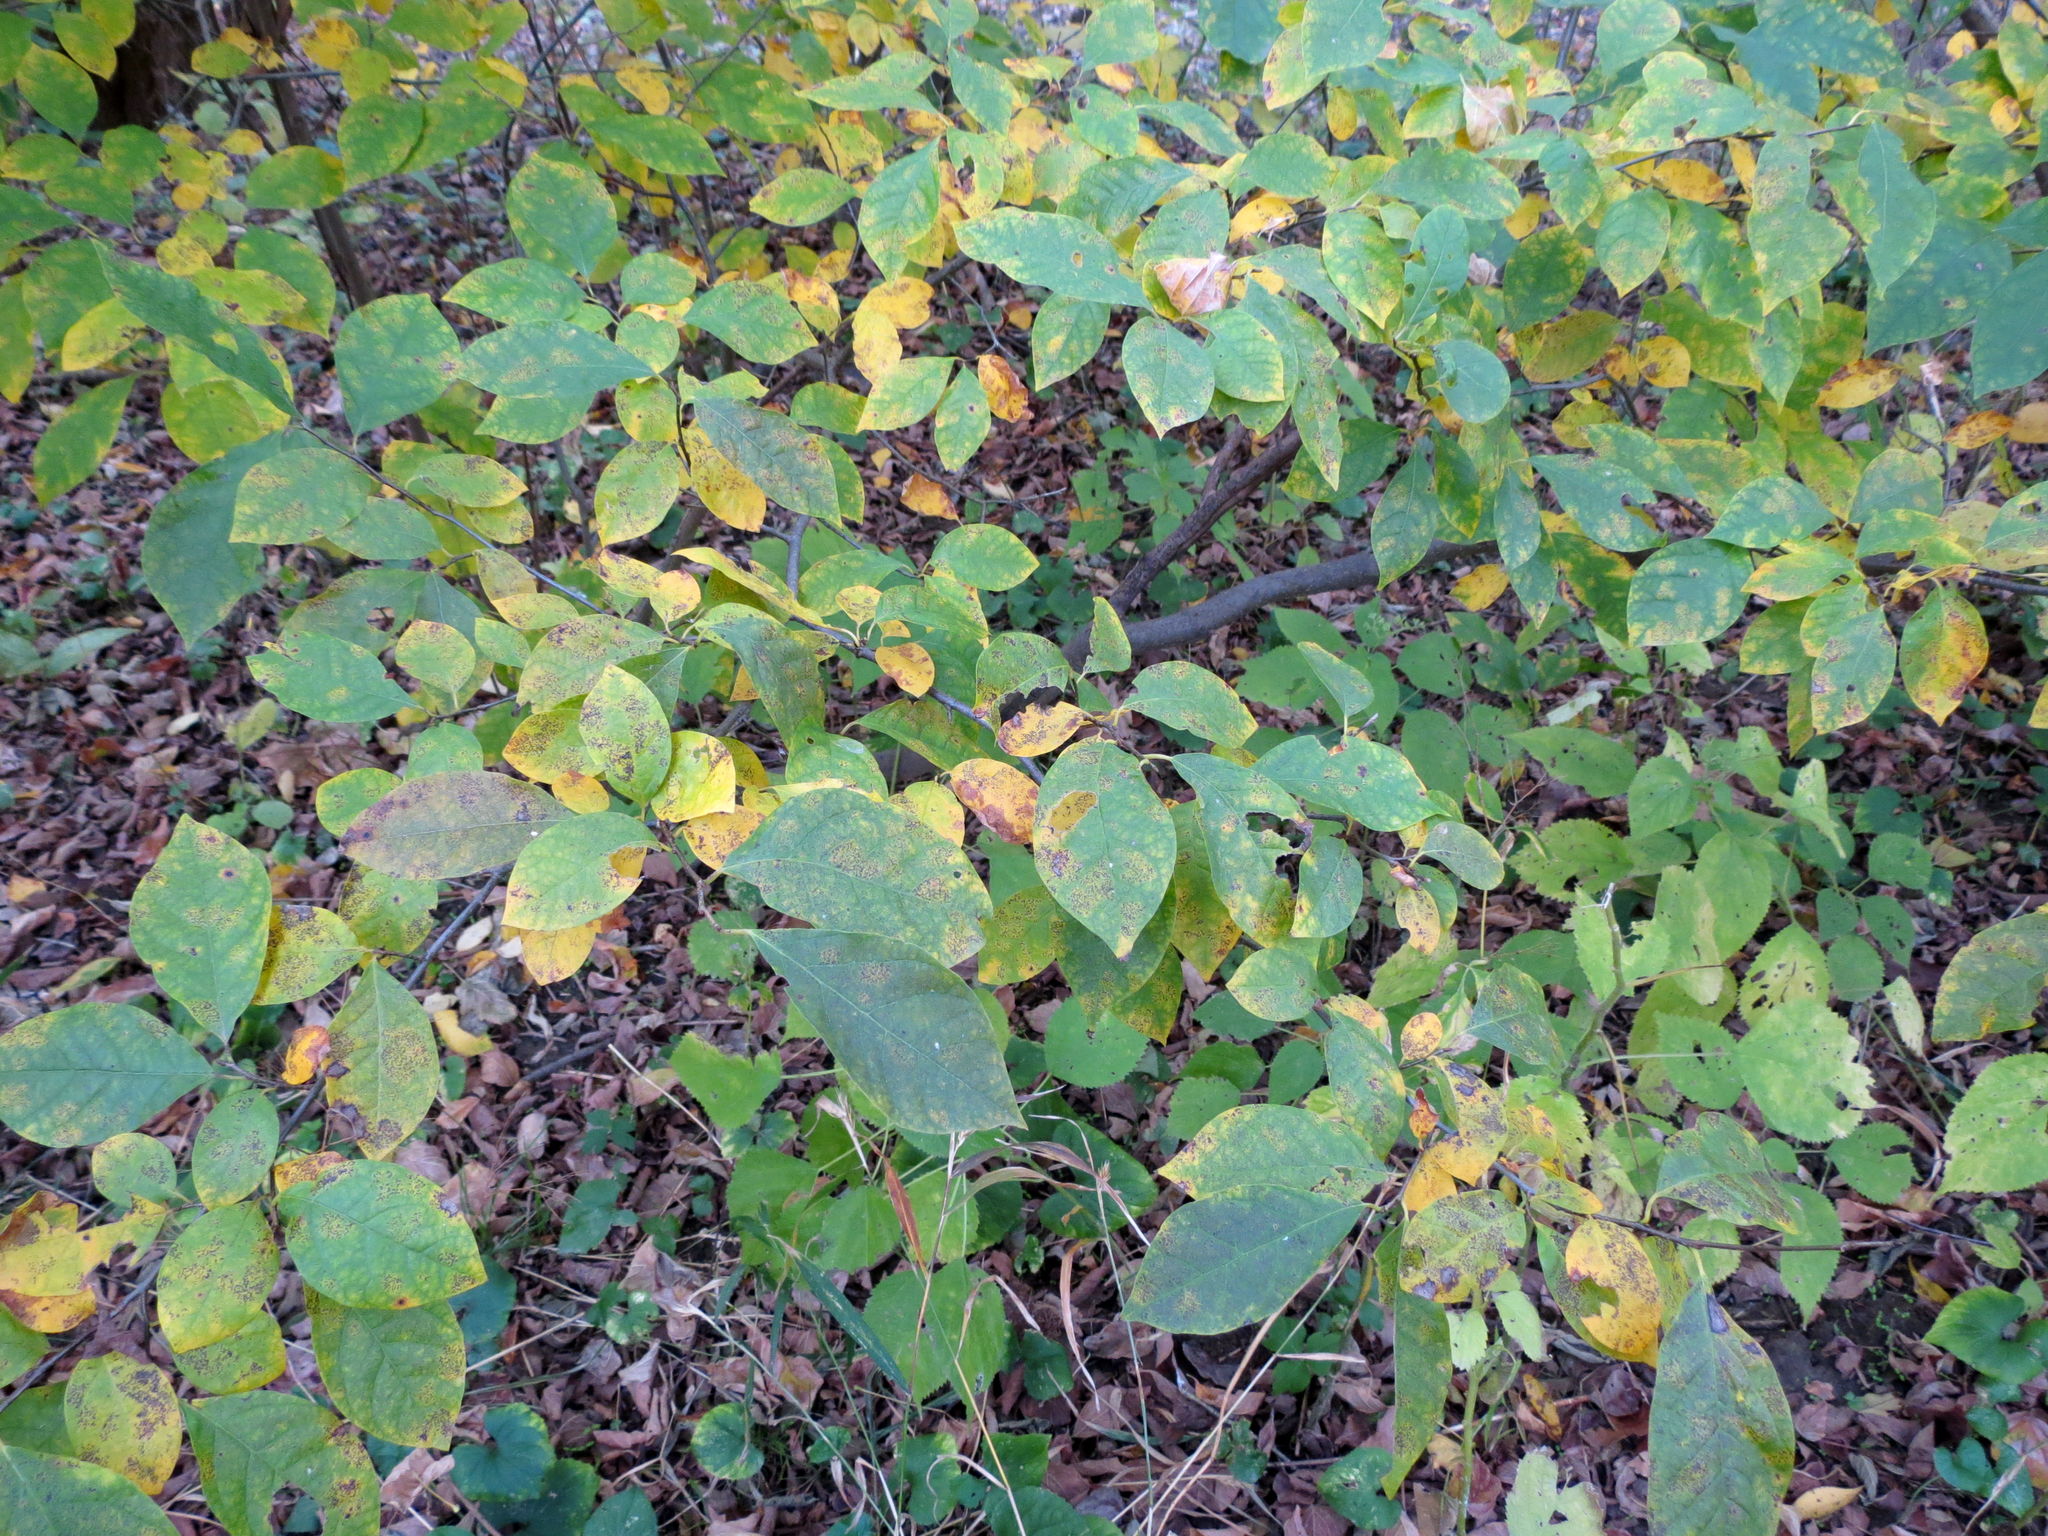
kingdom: Plantae
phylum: Tracheophyta
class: Magnoliopsida
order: Laurales
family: Lauraceae
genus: Lindera
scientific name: Lindera benzoin
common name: Spicebush
